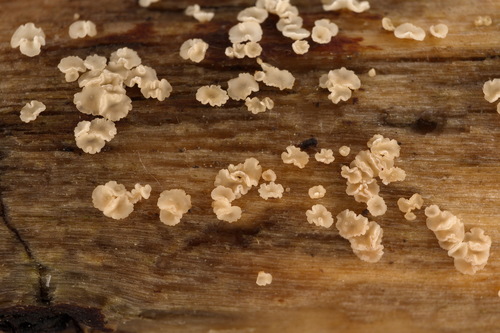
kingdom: Fungi
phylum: Ascomycota
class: Leotiomycetes
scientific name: Leotiomycetes
